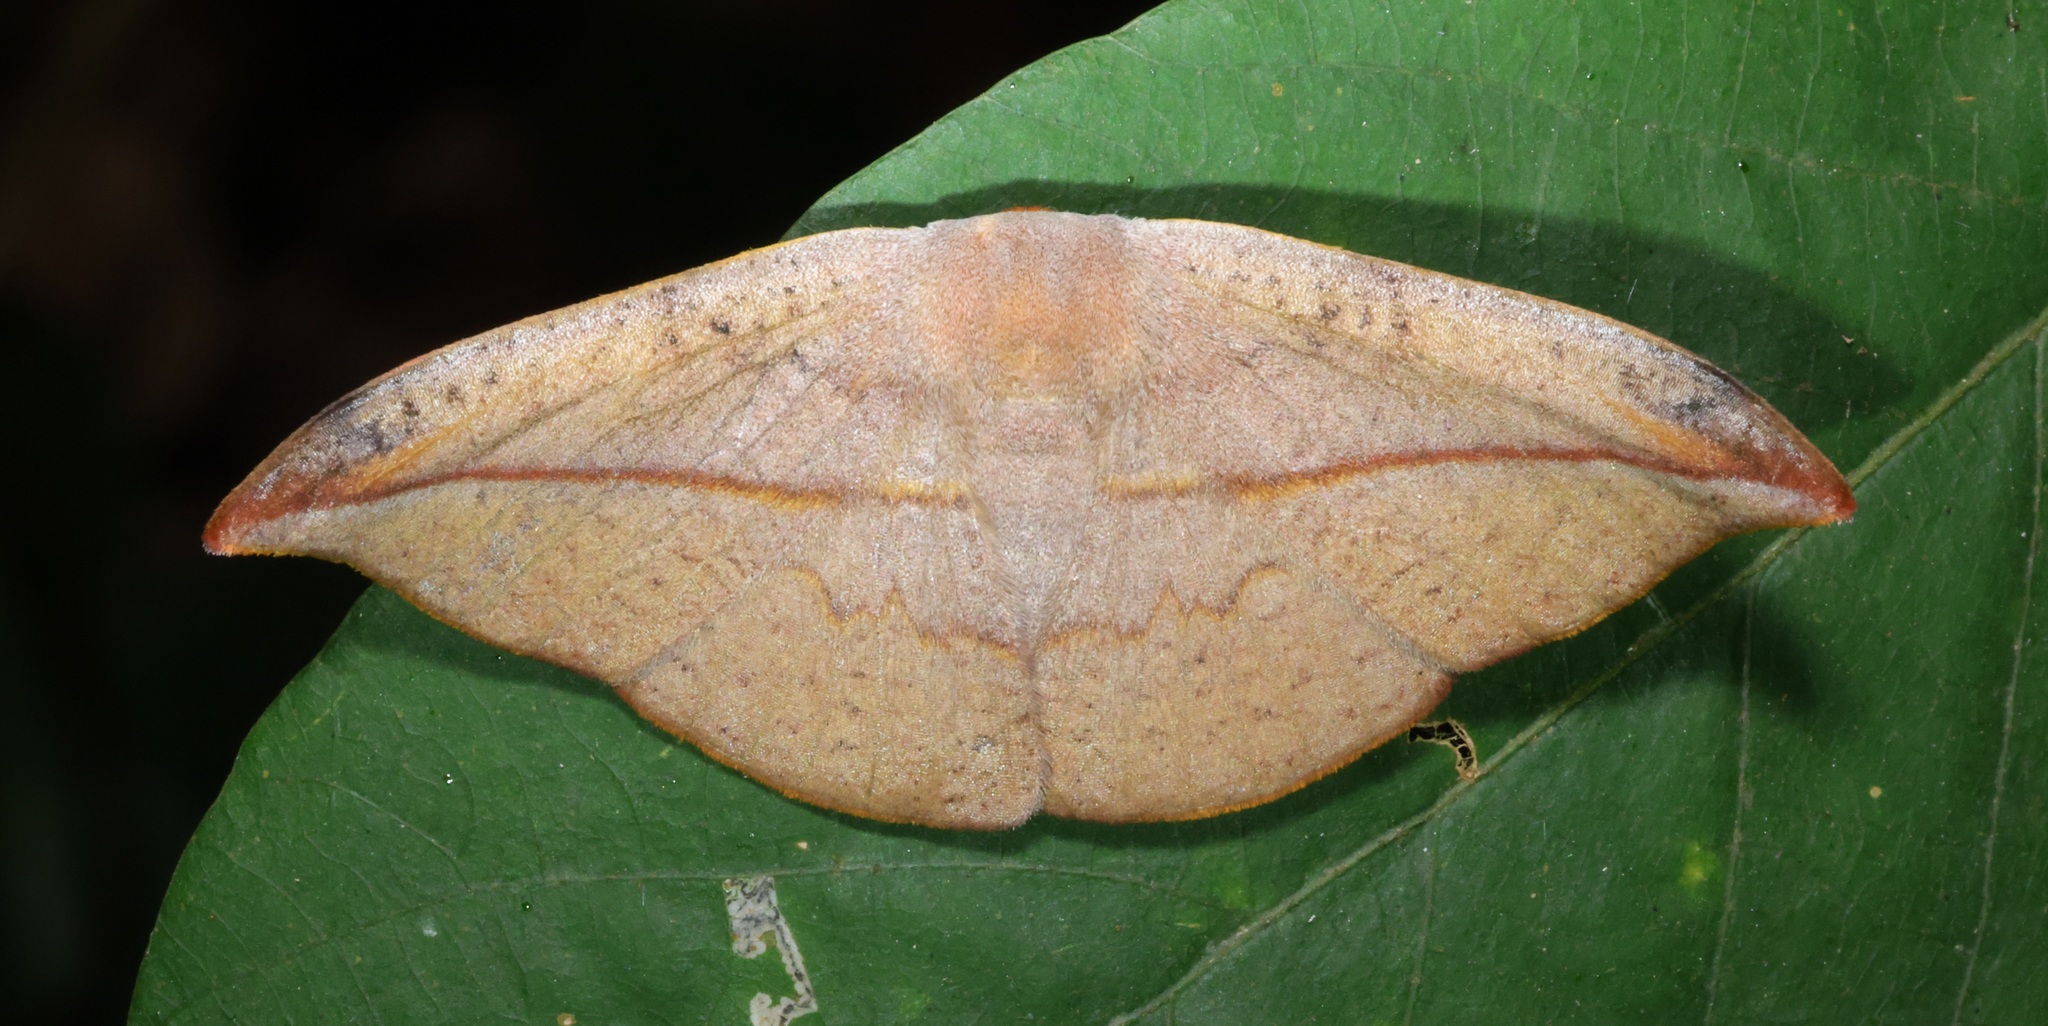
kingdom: Animalia
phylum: Arthropoda
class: Insecta
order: Lepidoptera
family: Drepanidae
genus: Oreta
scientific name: Oreta insignis
